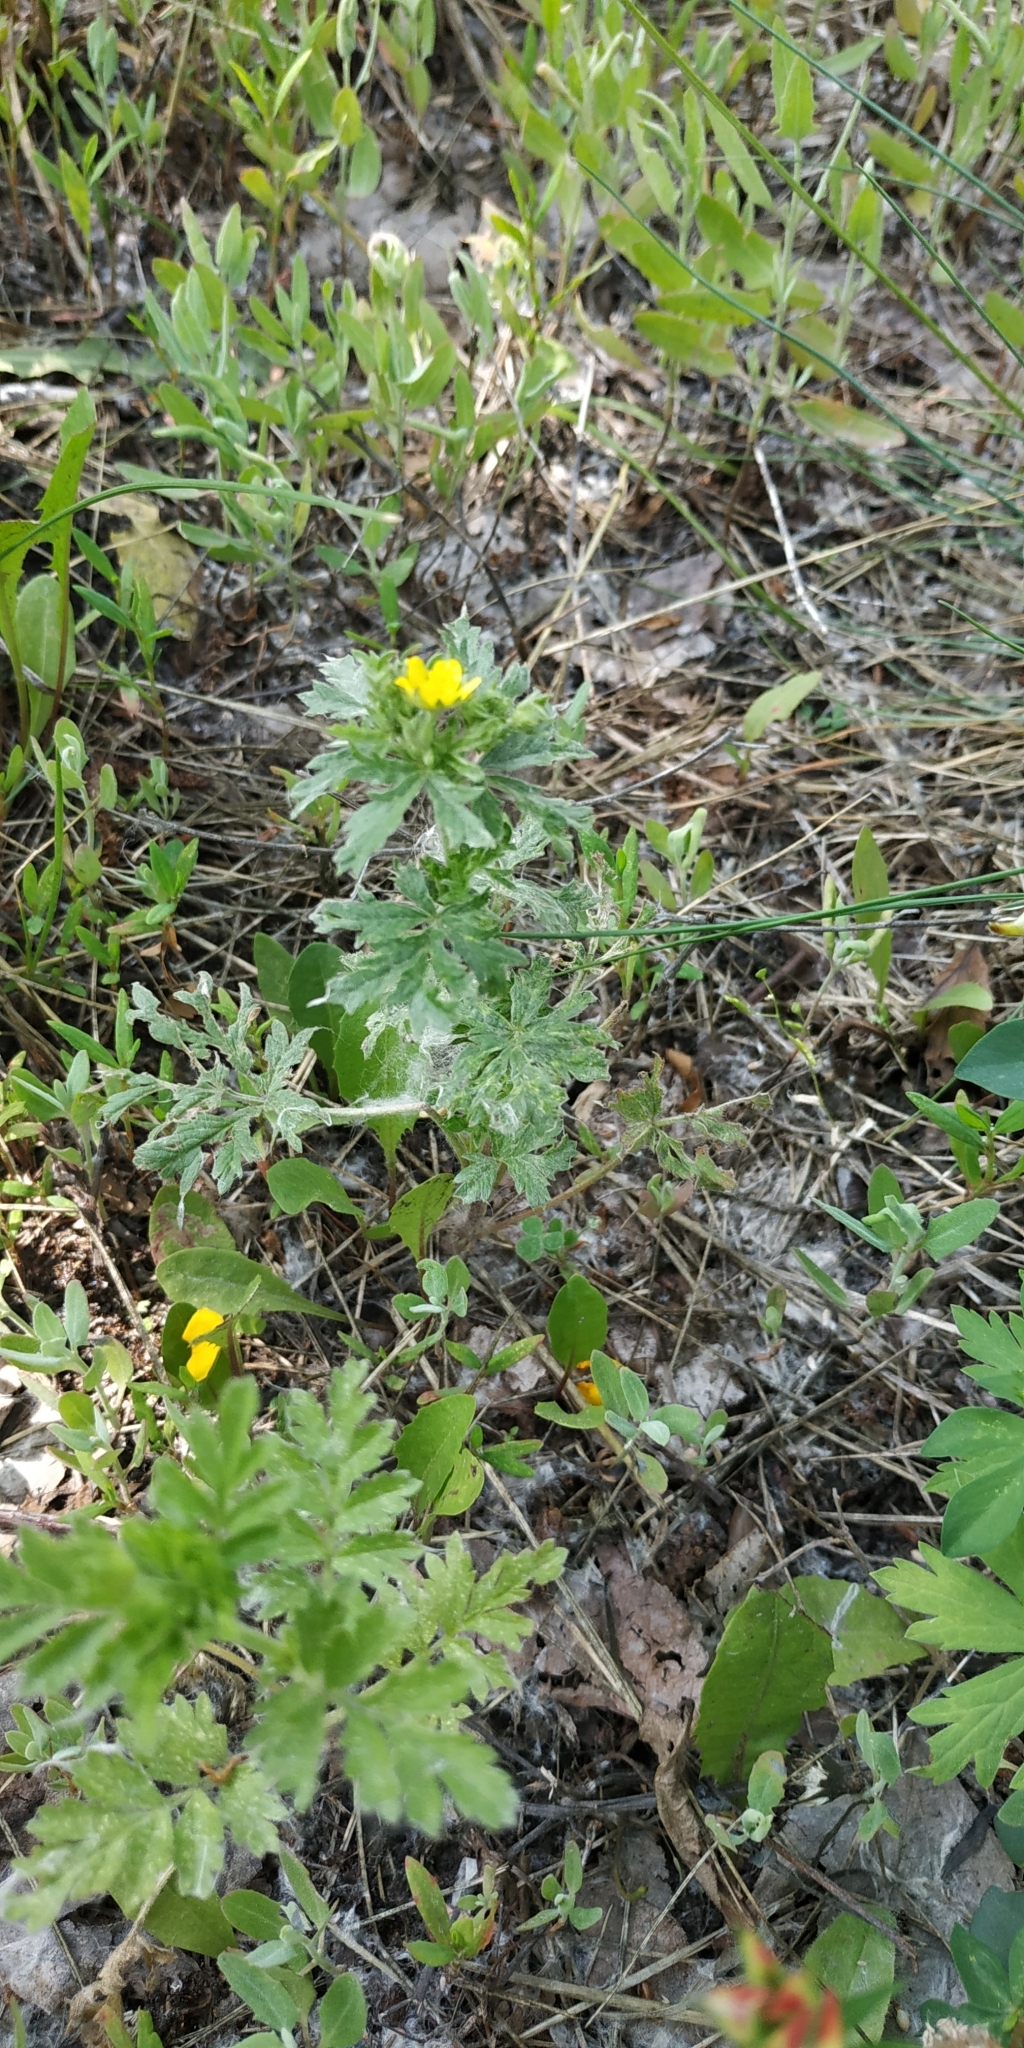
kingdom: Plantae
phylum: Tracheophyta
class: Magnoliopsida
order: Rosales
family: Rosaceae
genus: Potentilla
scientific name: Potentilla tobolensis
